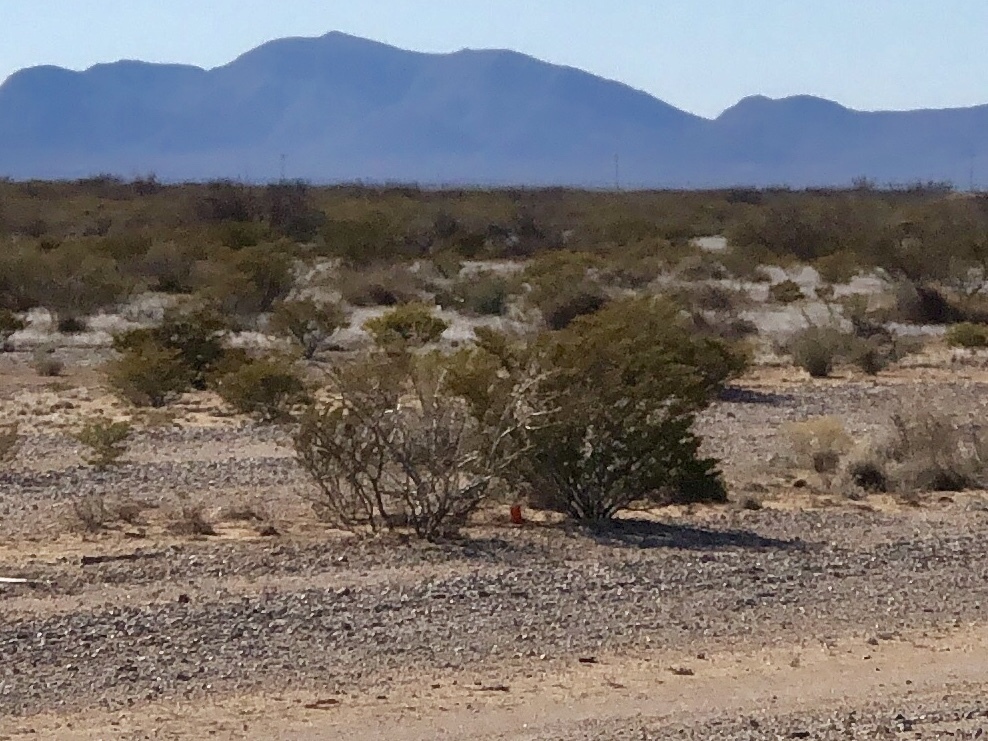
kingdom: Plantae
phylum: Tracheophyta
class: Magnoliopsida
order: Zygophyllales
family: Zygophyllaceae
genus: Larrea
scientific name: Larrea tridentata
